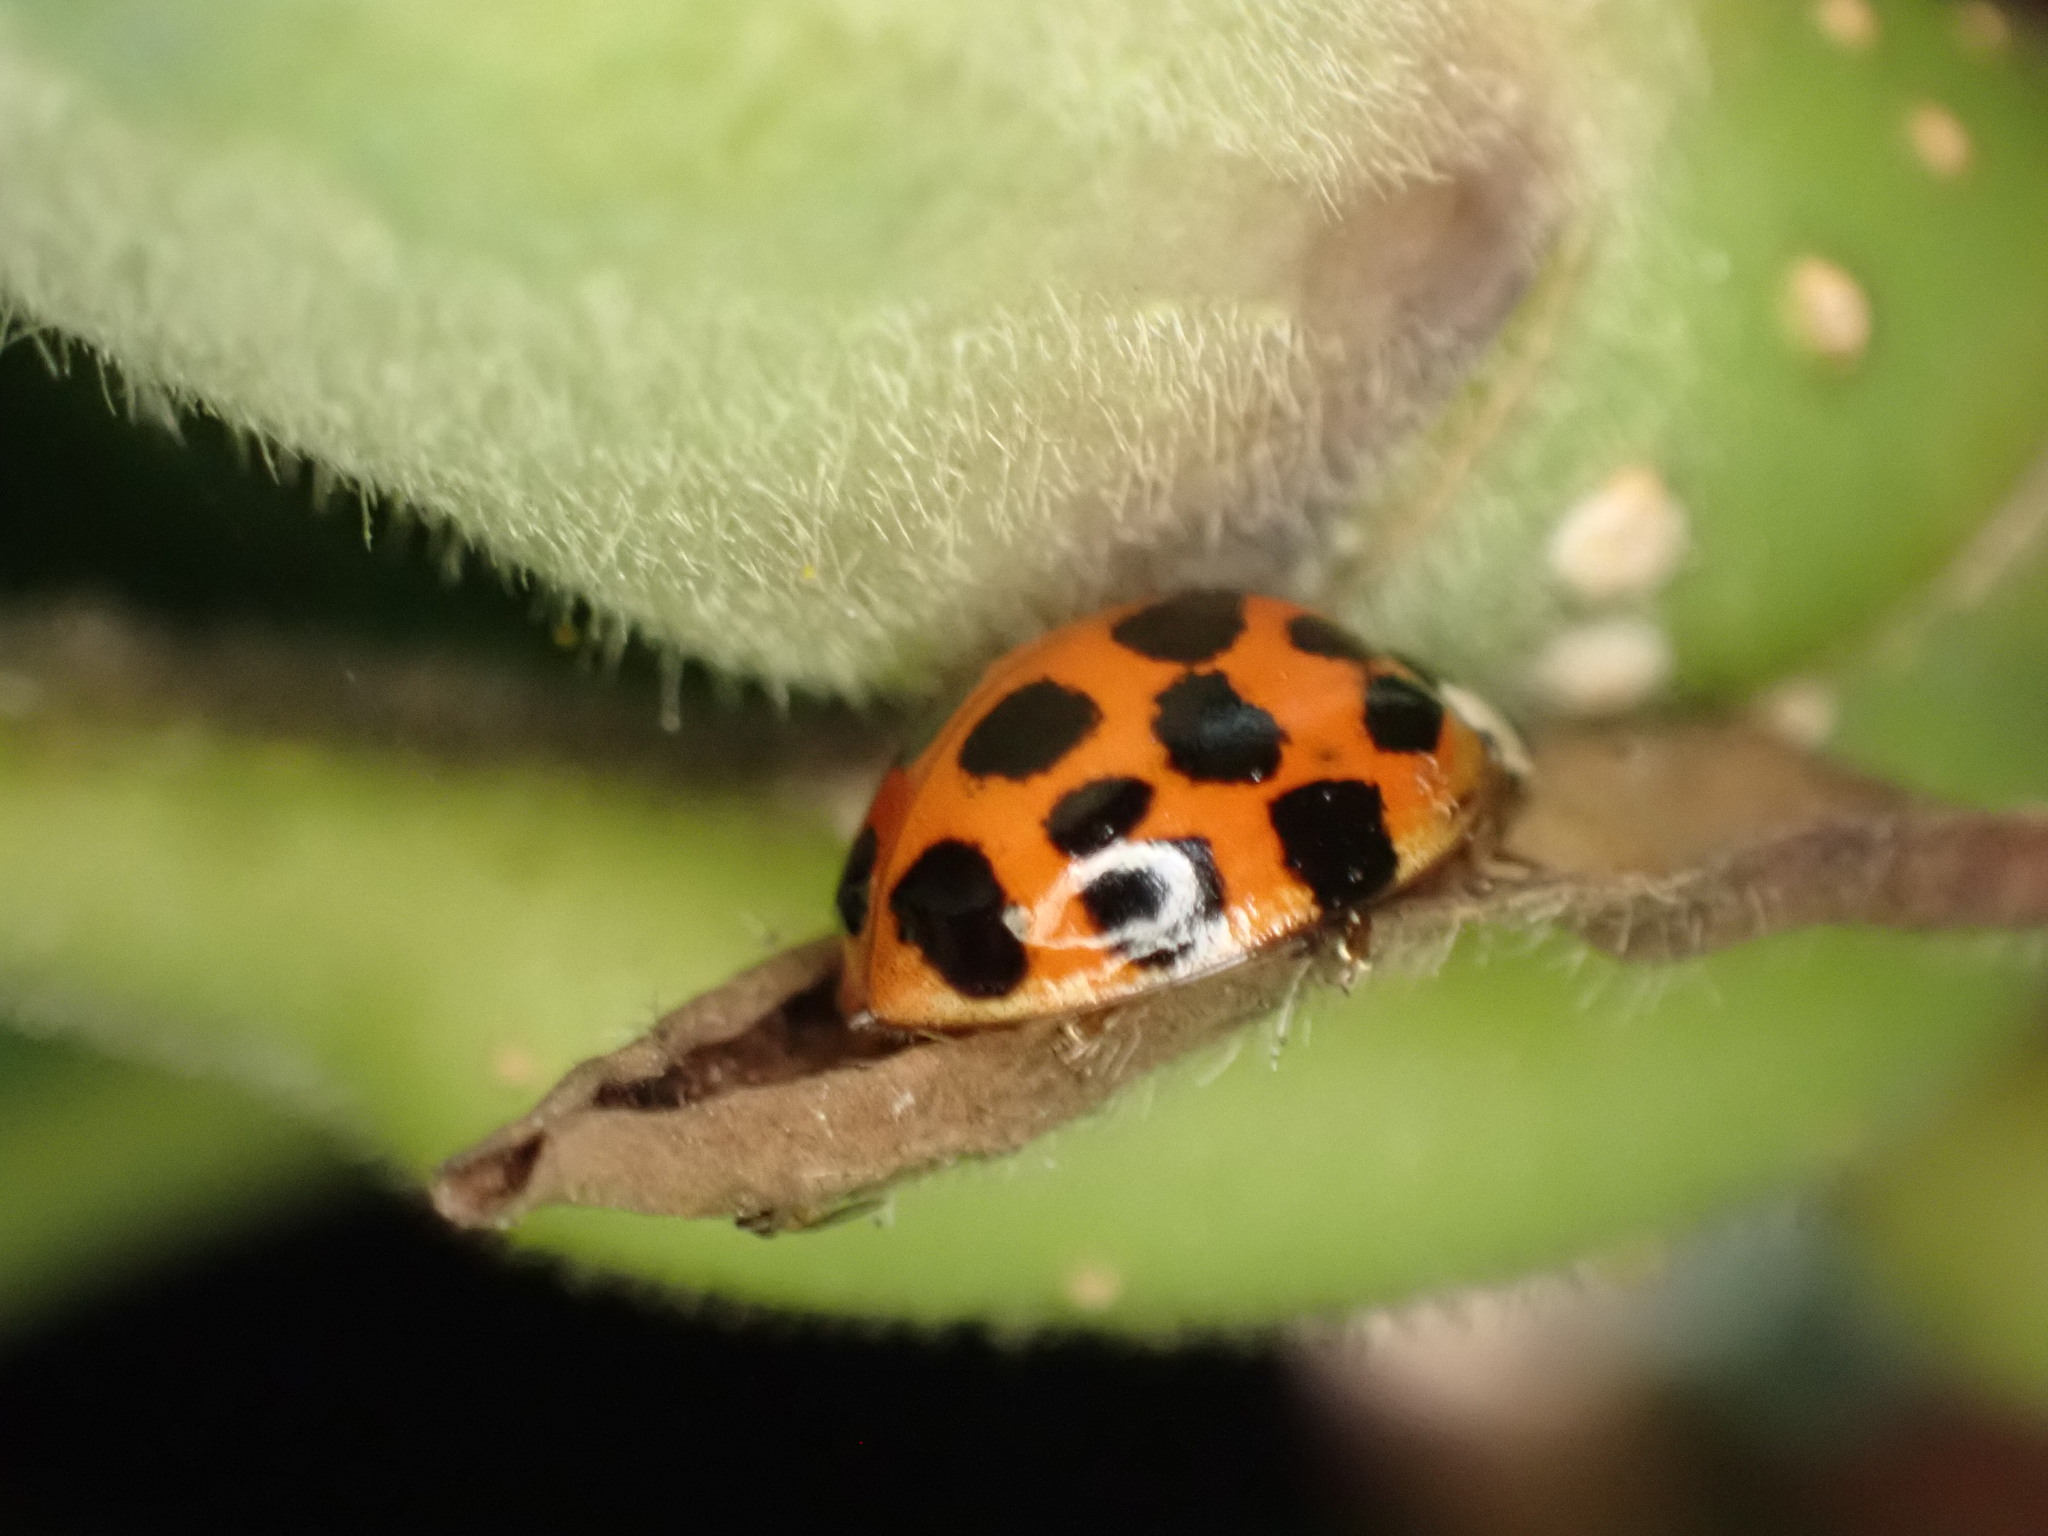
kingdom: Animalia
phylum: Arthropoda
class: Insecta
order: Coleoptera
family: Coccinellidae
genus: Harmonia
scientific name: Harmonia axyridis
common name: Harlequin ladybird
